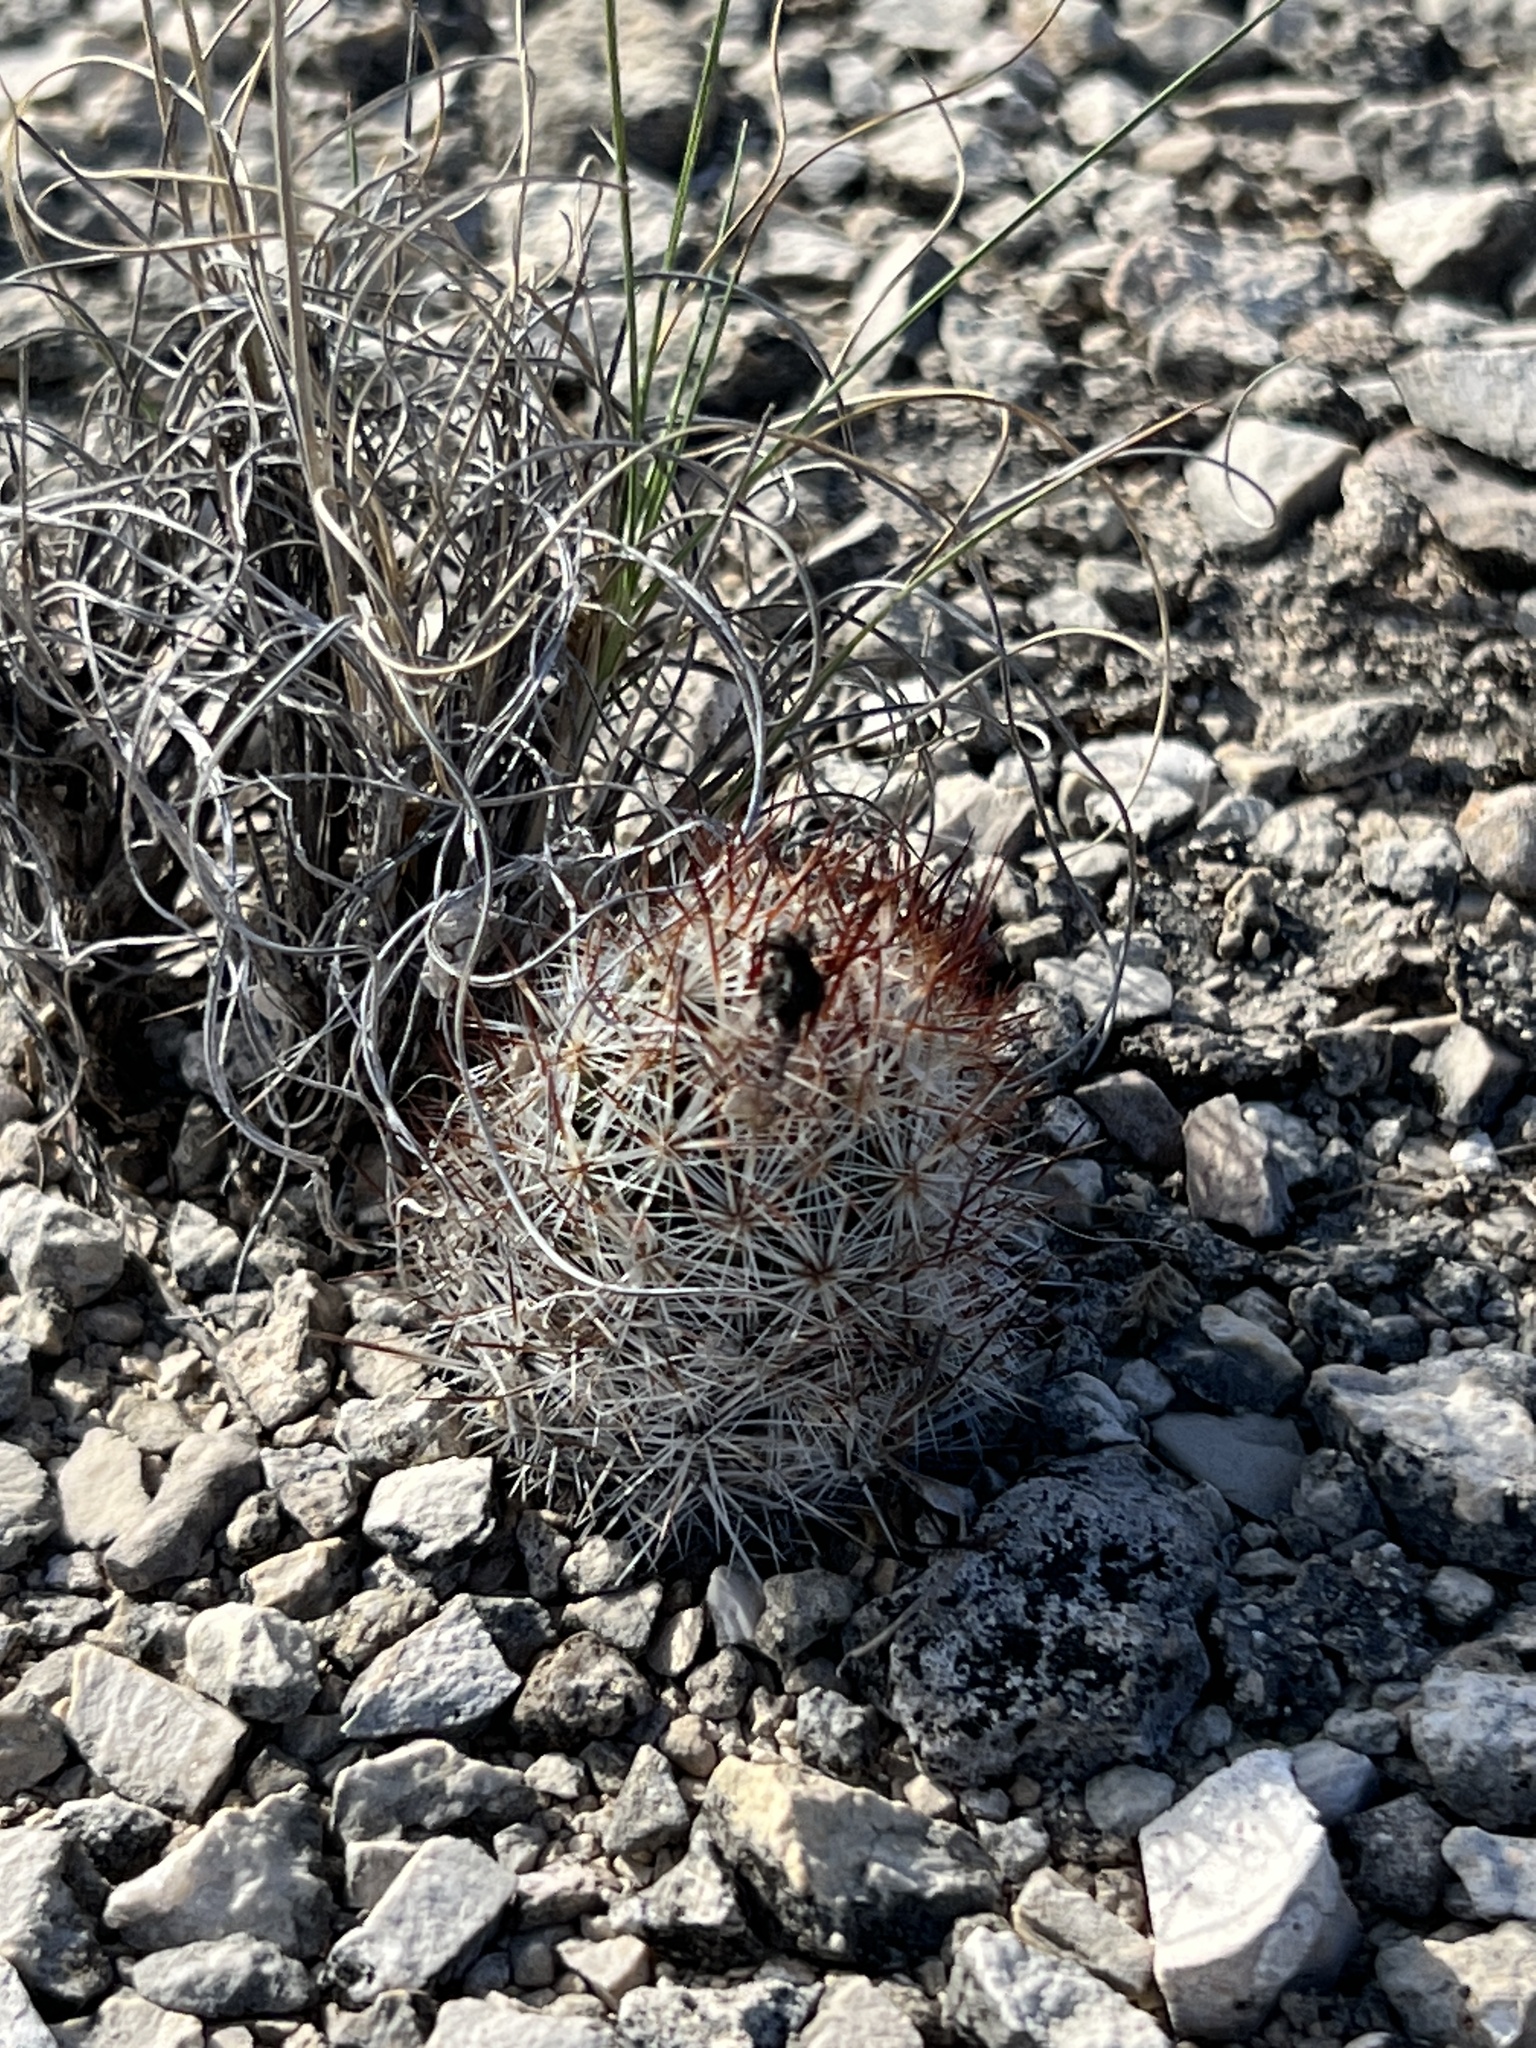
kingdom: Plantae
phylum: Tracheophyta
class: Magnoliopsida
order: Caryophyllales
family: Cactaceae
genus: Pelecyphora
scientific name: Pelecyphora emskoetteriana
